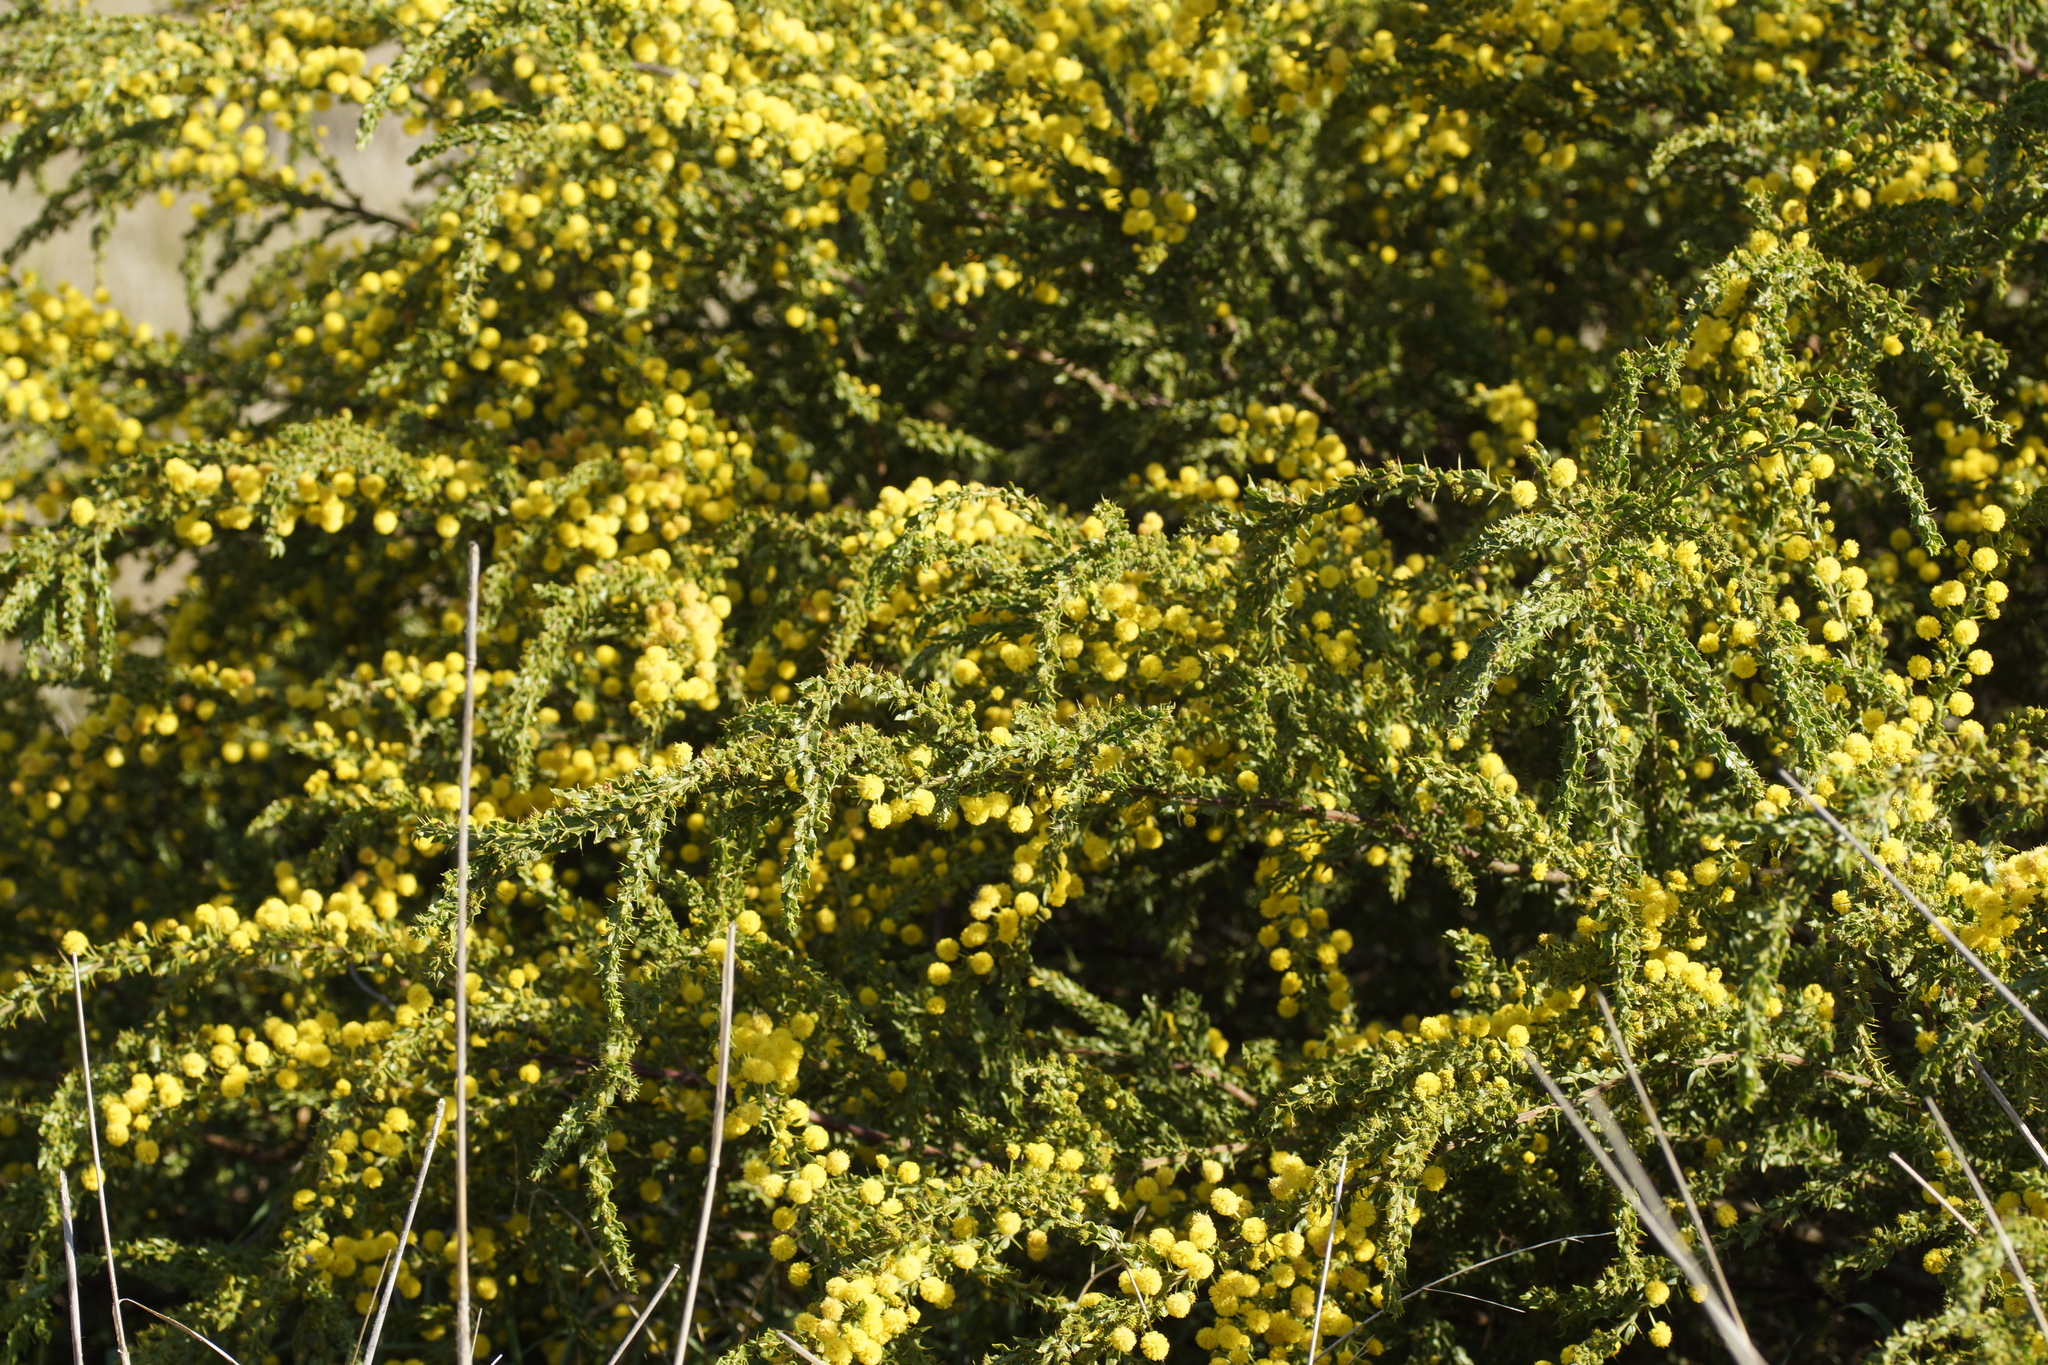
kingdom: Plantae
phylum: Tracheophyta
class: Magnoliopsida
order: Fabales
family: Fabaceae
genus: Acacia
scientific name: Acacia paradoxa
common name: Paradox acacia
